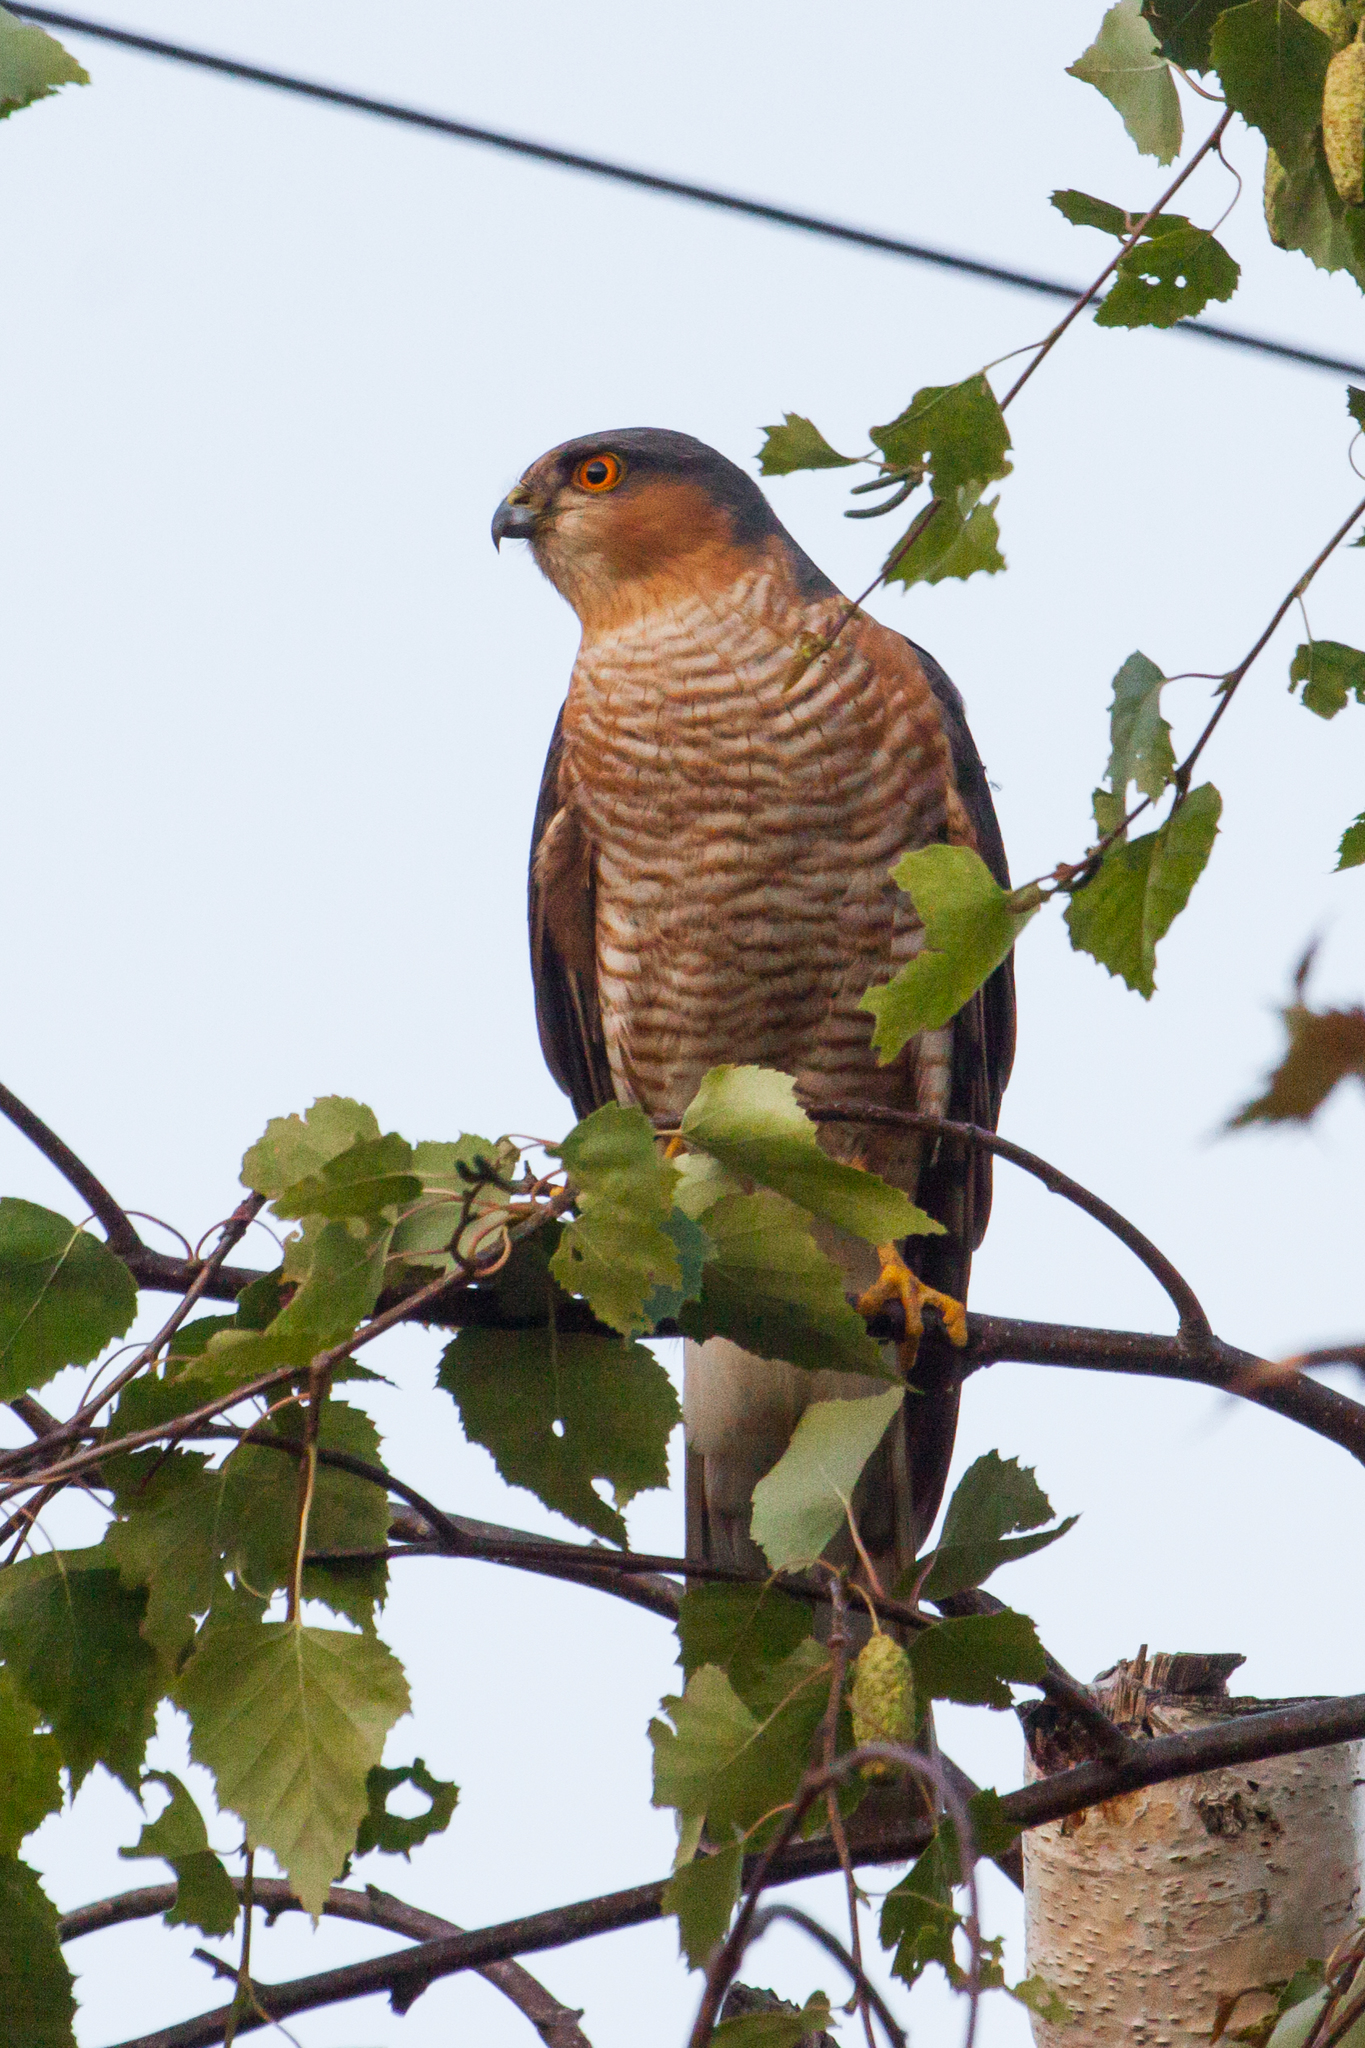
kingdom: Animalia
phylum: Chordata
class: Aves
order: Accipitriformes
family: Accipitridae
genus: Accipiter
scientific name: Accipiter nisus
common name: Eurasian sparrowhawk
